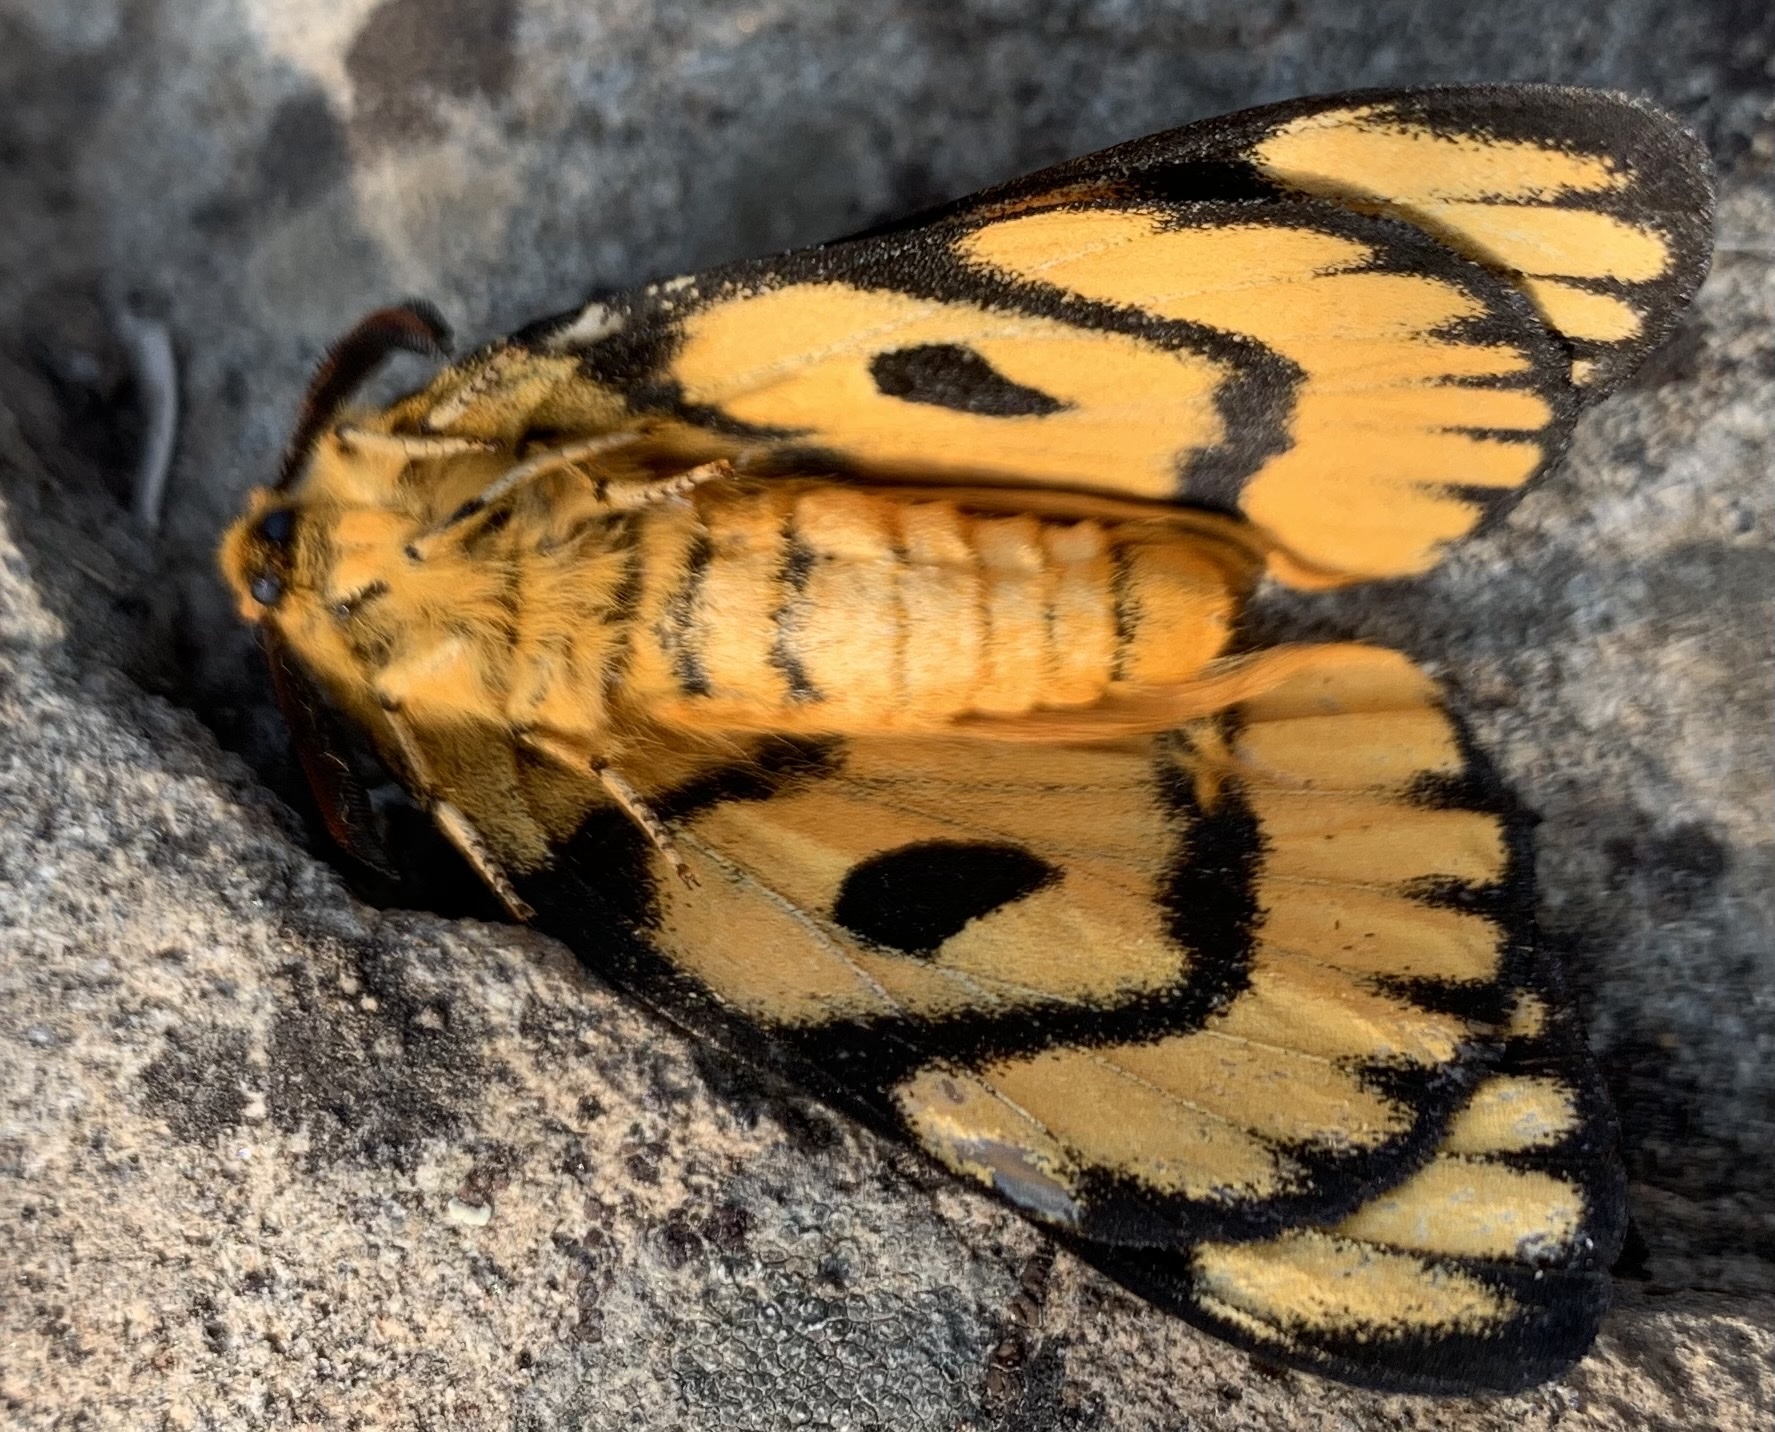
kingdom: Animalia
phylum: Arthropoda
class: Insecta
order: Lepidoptera
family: Saturniidae
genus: Hemileuca
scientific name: Hemileuca nutalli
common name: Nuttall's sheepmoth
